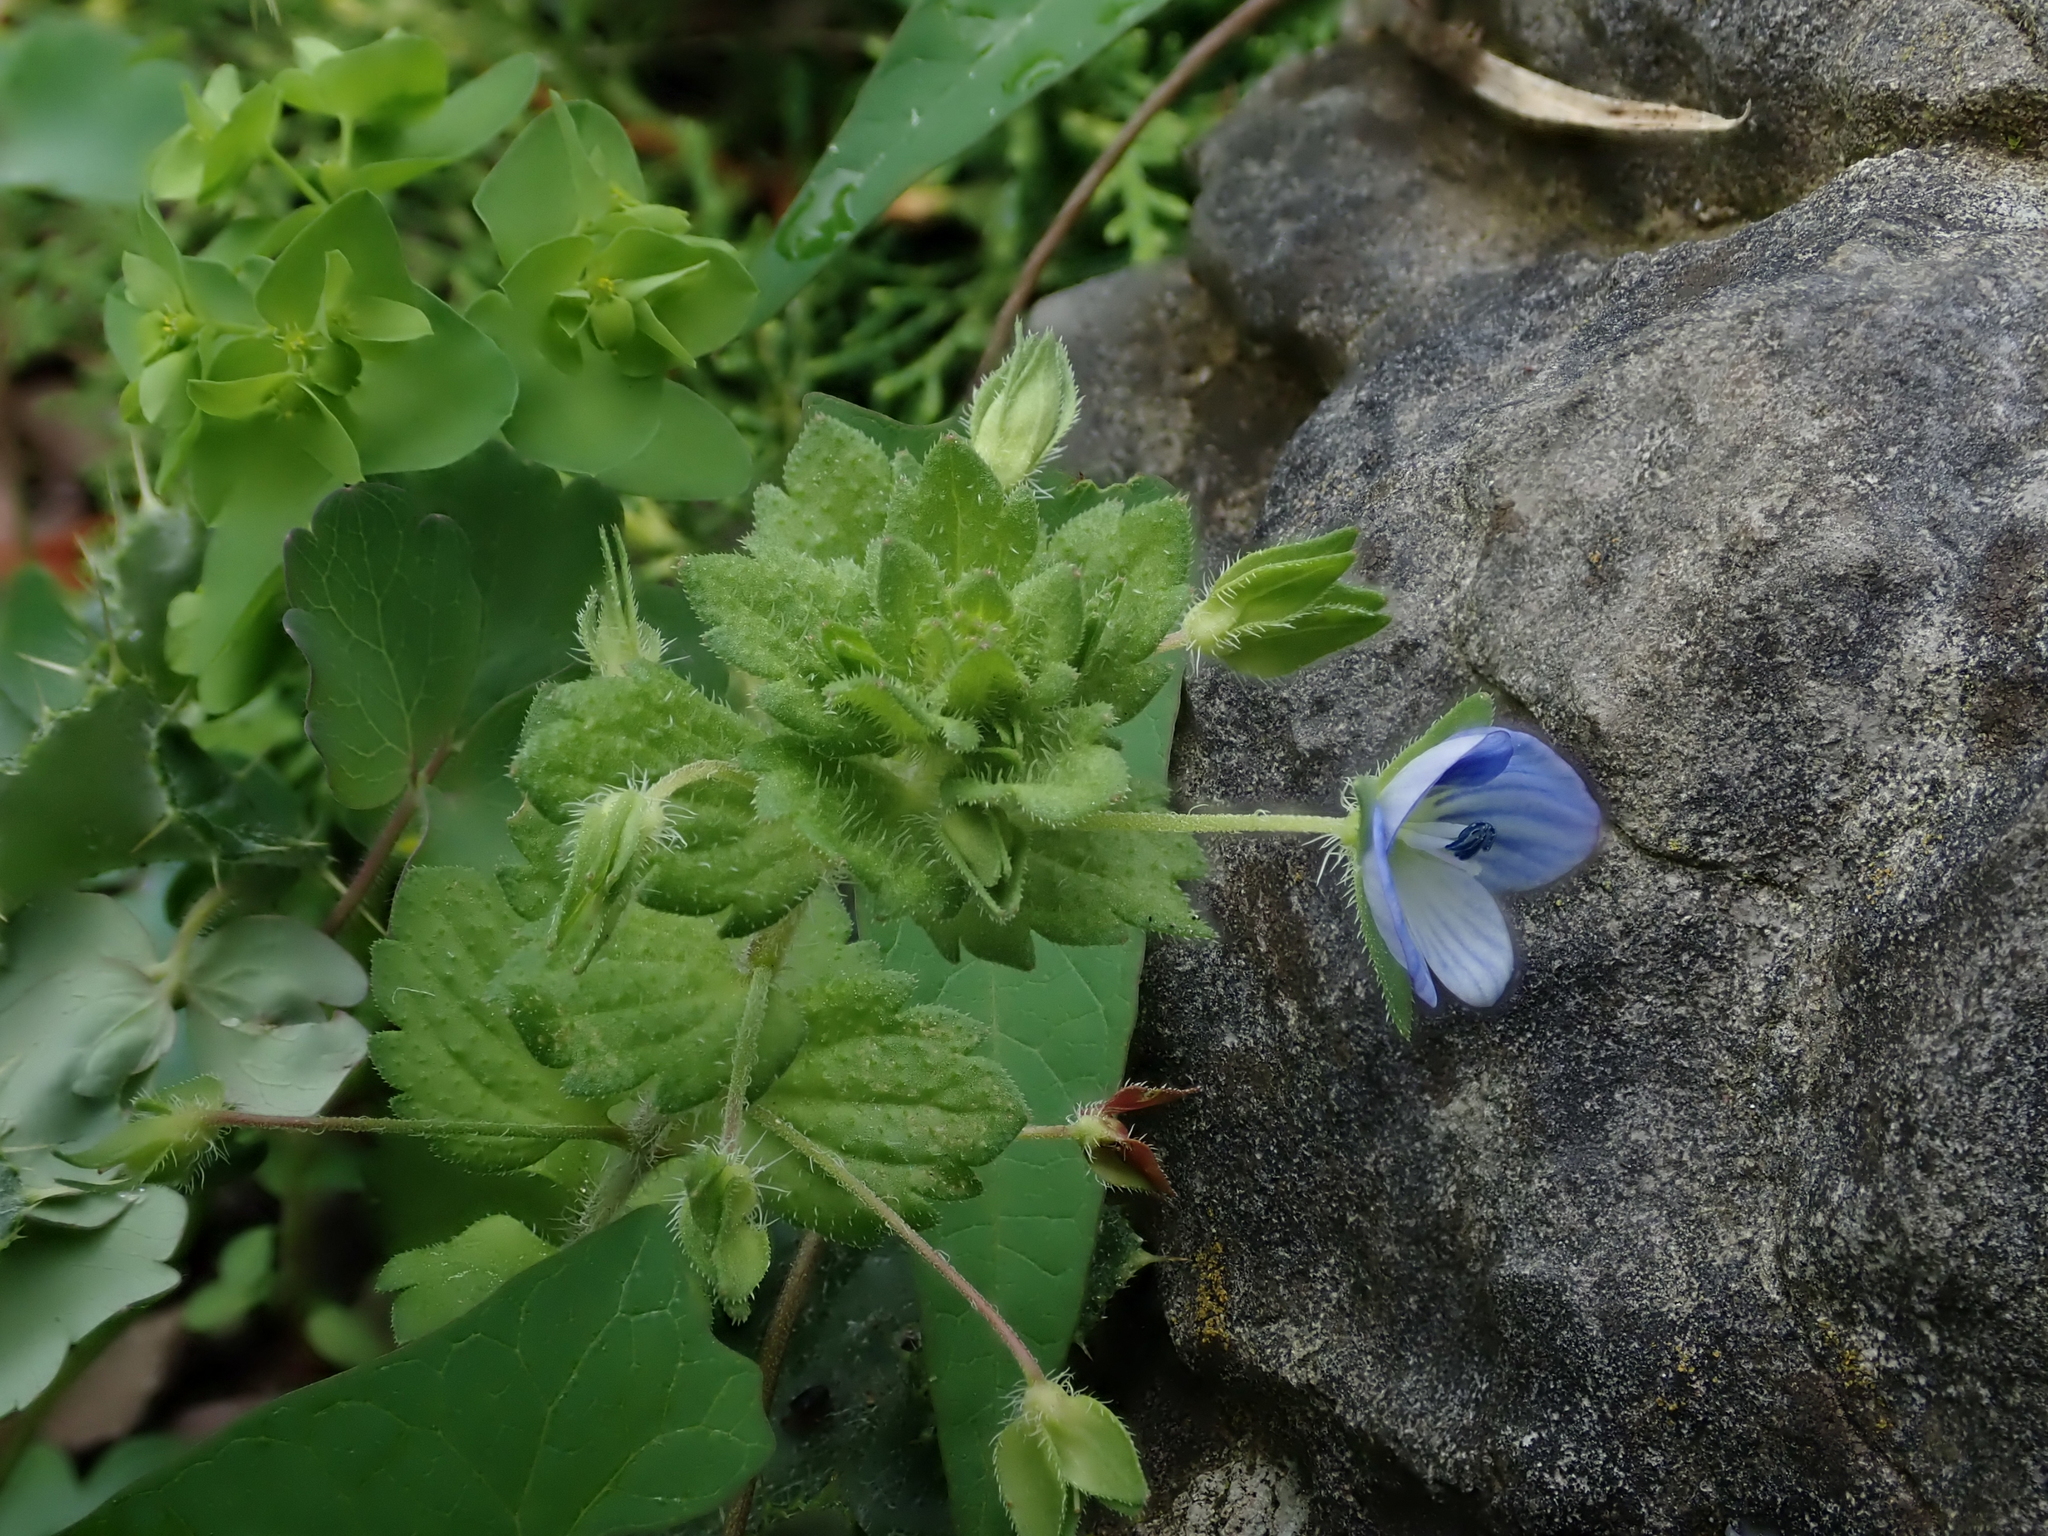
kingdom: Plantae
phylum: Tracheophyta
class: Magnoliopsida
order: Lamiales
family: Plantaginaceae
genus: Veronica
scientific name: Veronica persica
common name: Common field-speedwell
